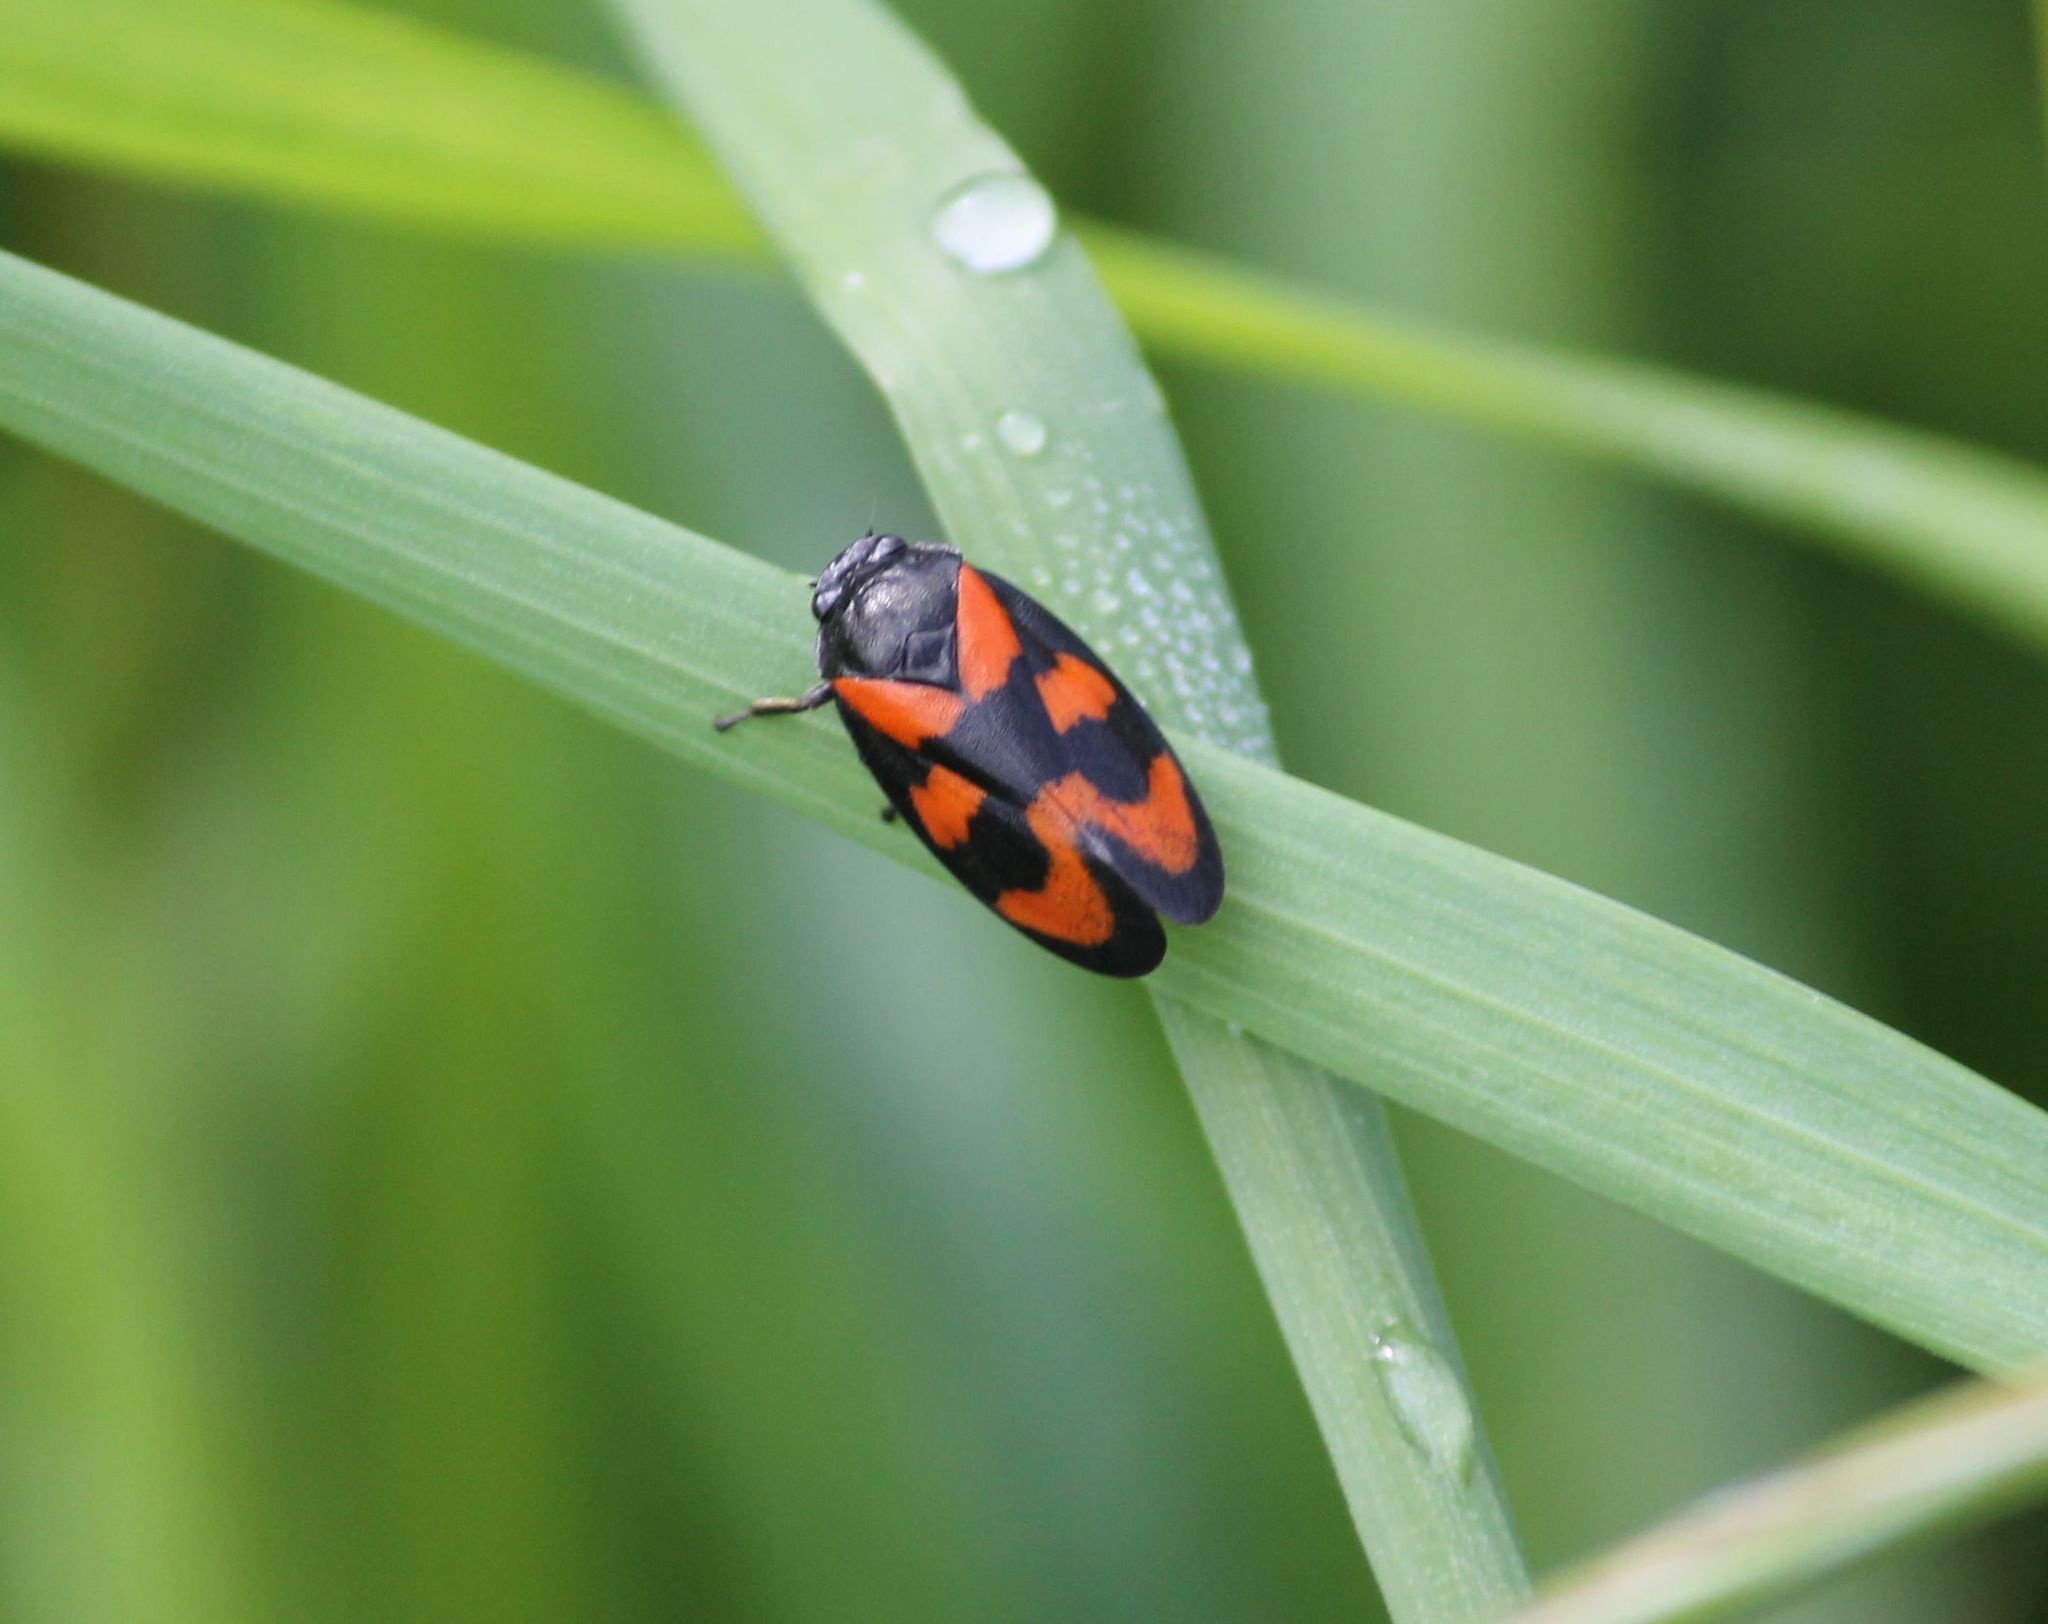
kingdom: Animalia
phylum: Arthropoda
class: Insecta
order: Hemiptera
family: Cercopidae
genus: Cercopis
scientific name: Cercopis vulnerata
